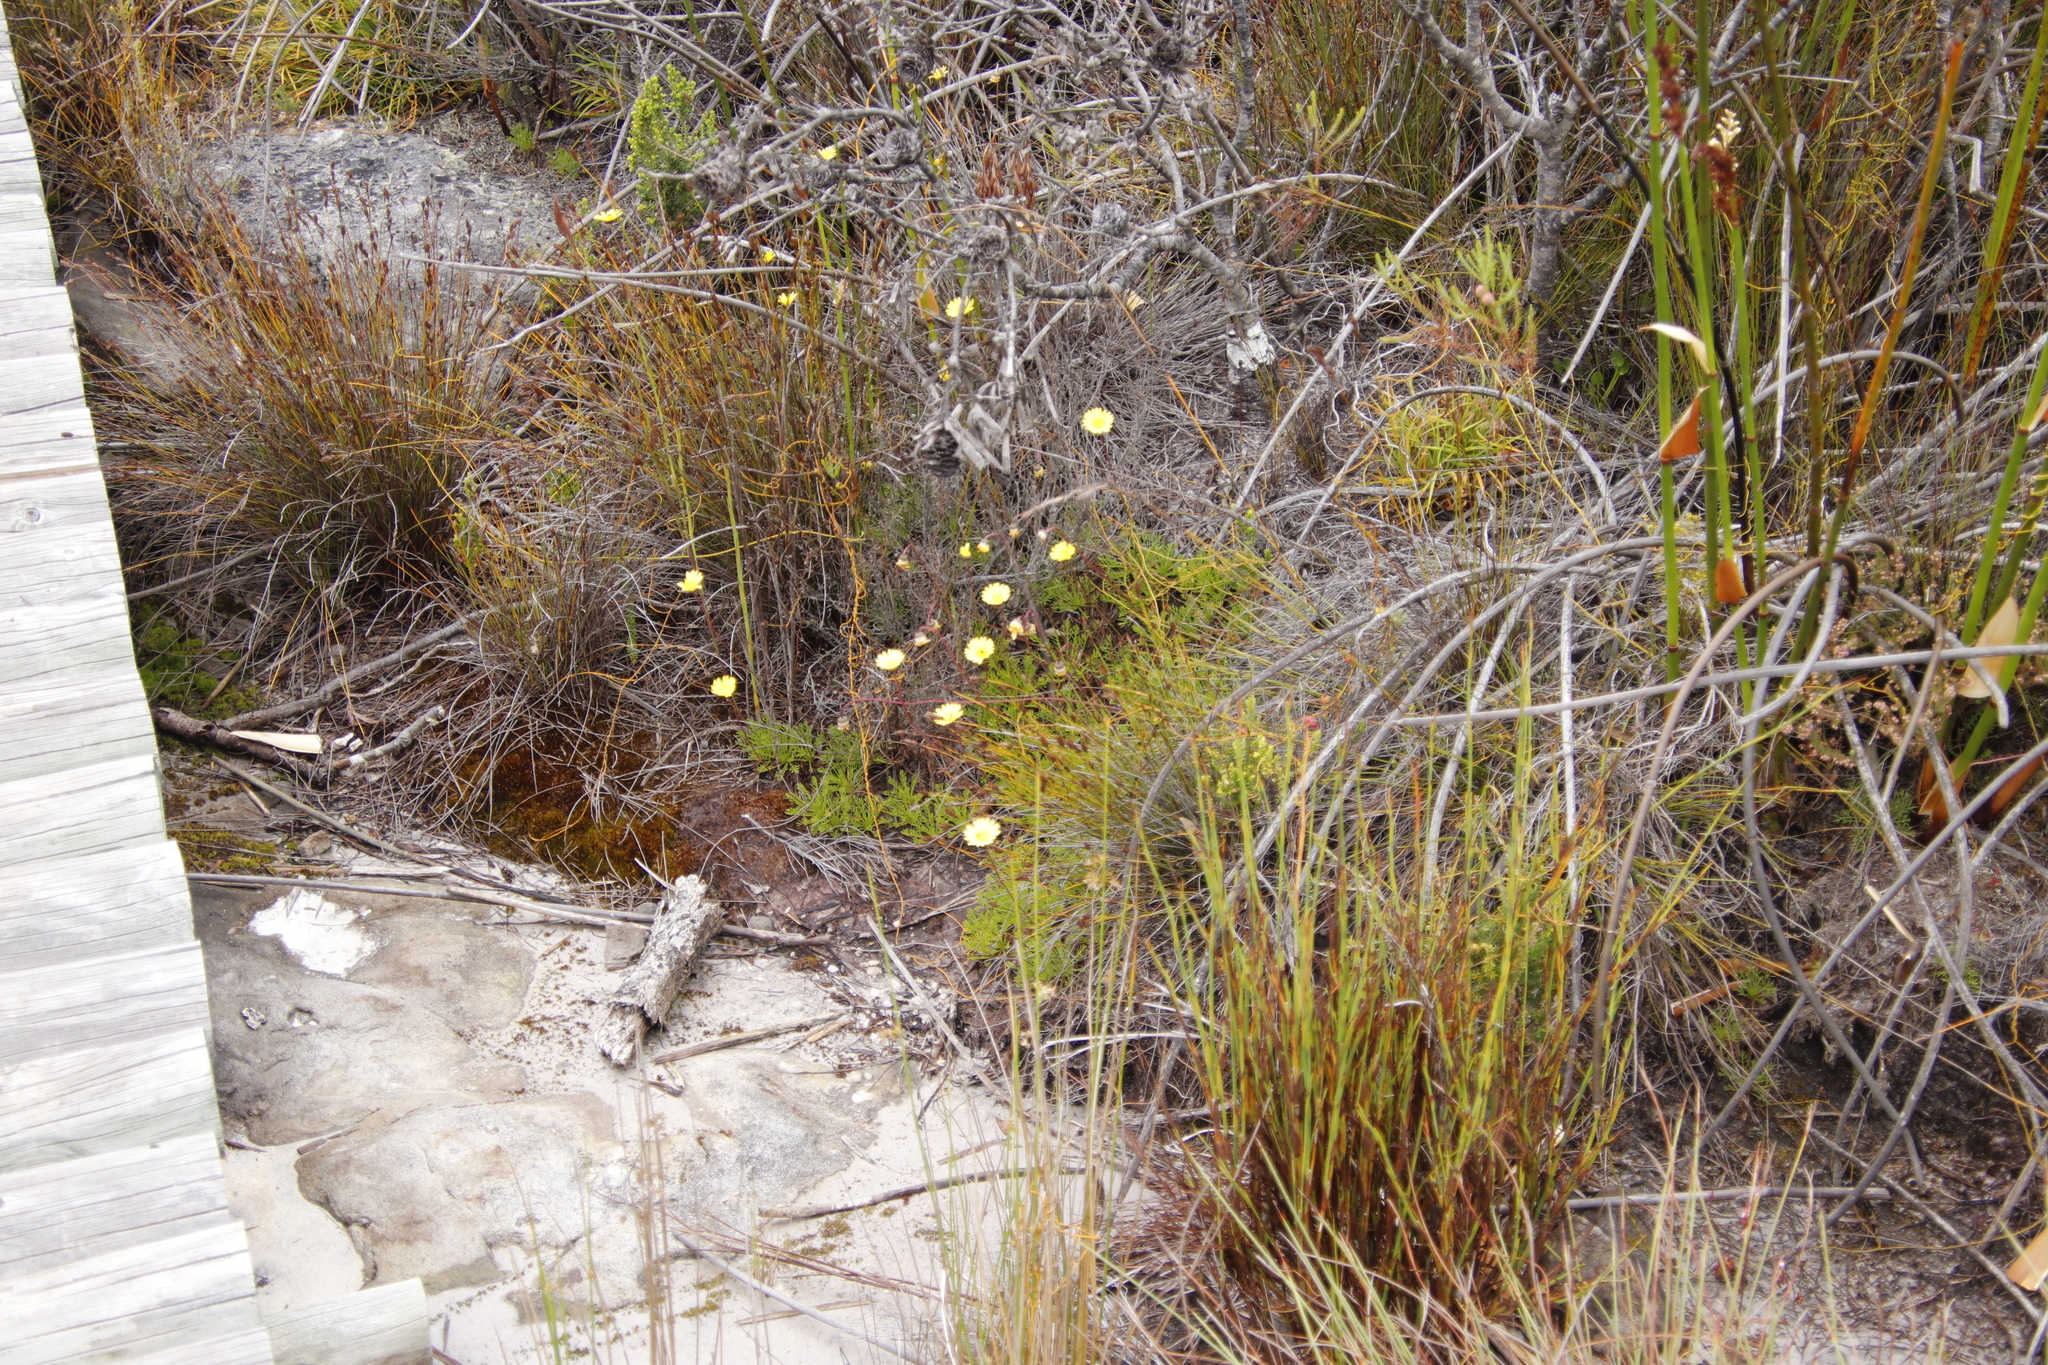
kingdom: Plantae
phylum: Tracheophyta
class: Magnoliopsida
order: Asterales
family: Asteraceae
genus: Ursinia
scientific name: Ursinia nudicaulis
